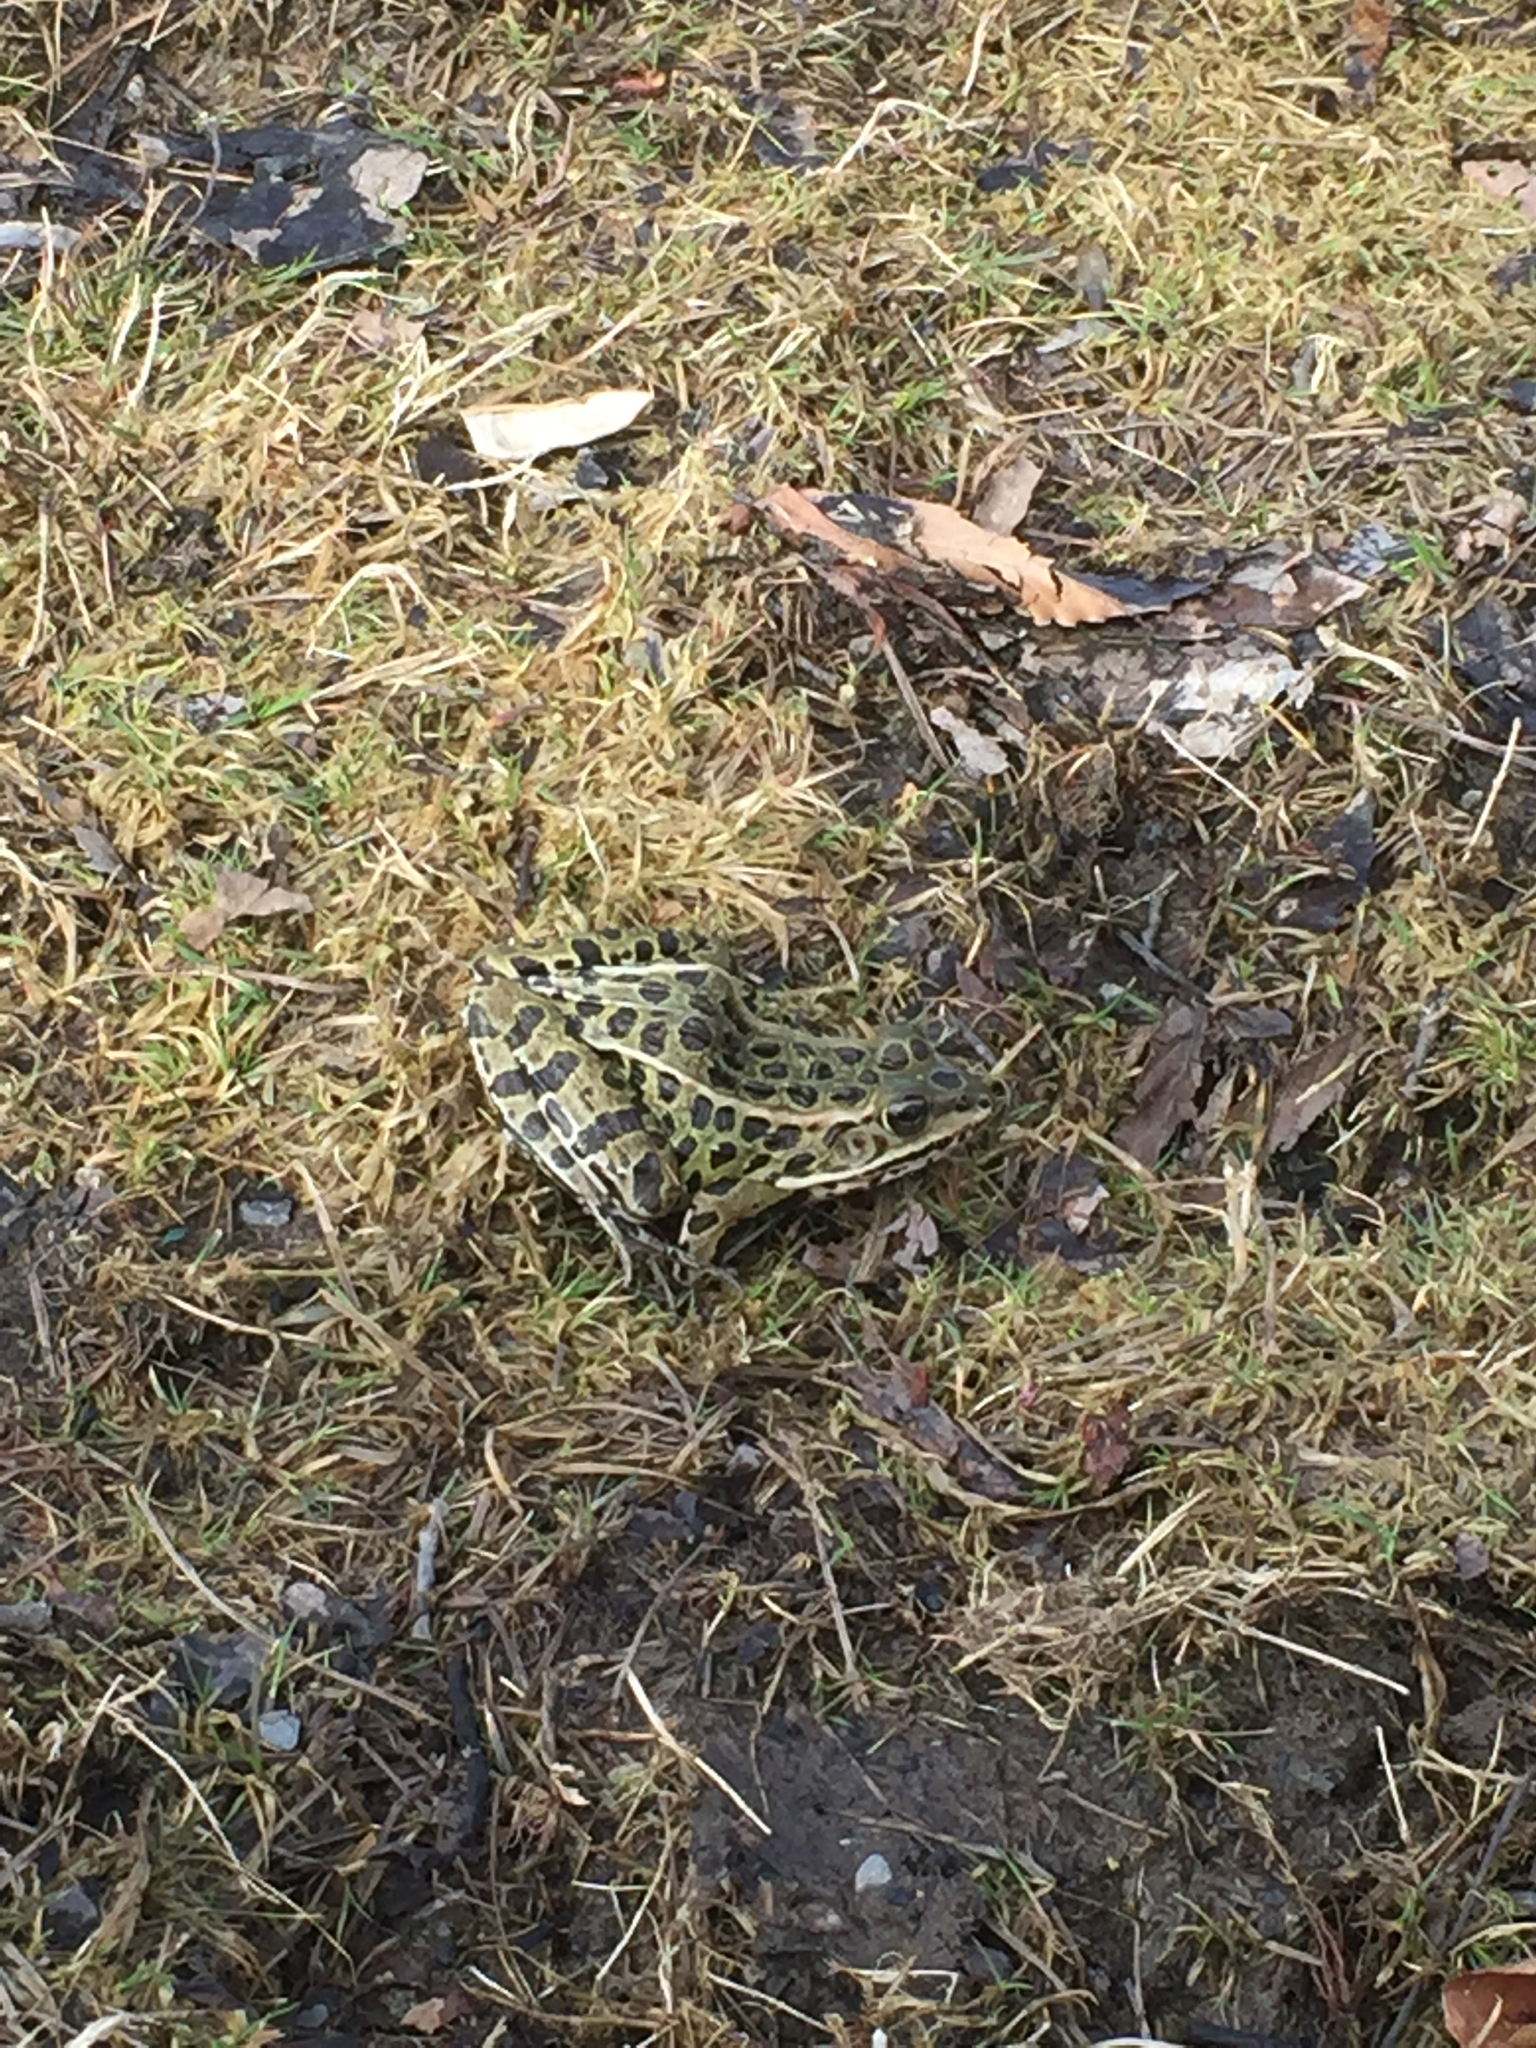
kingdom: Animalia
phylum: Chordata
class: Amphibia
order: Anura
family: Ranidae
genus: Lithobates
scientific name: Lithobates pipiens
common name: Northern leopard frog
